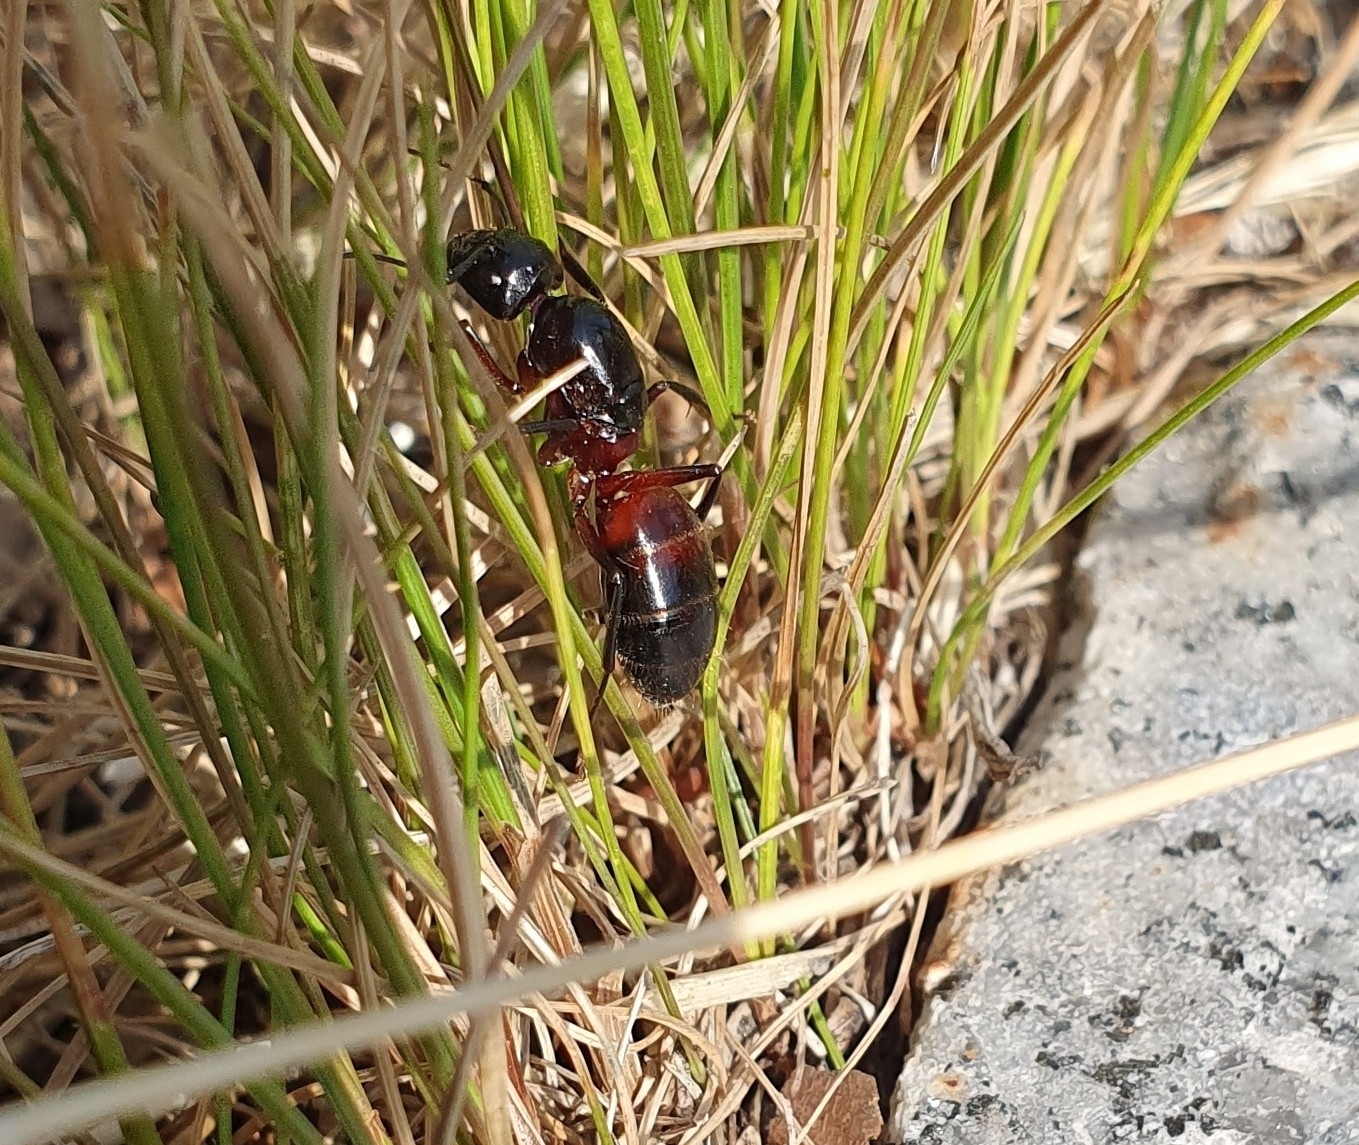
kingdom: Animalia
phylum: Arthropoda
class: Insecta
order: Hymenoptera
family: Formicidae
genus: Camponotus
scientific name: Camponotus ligniperdus
